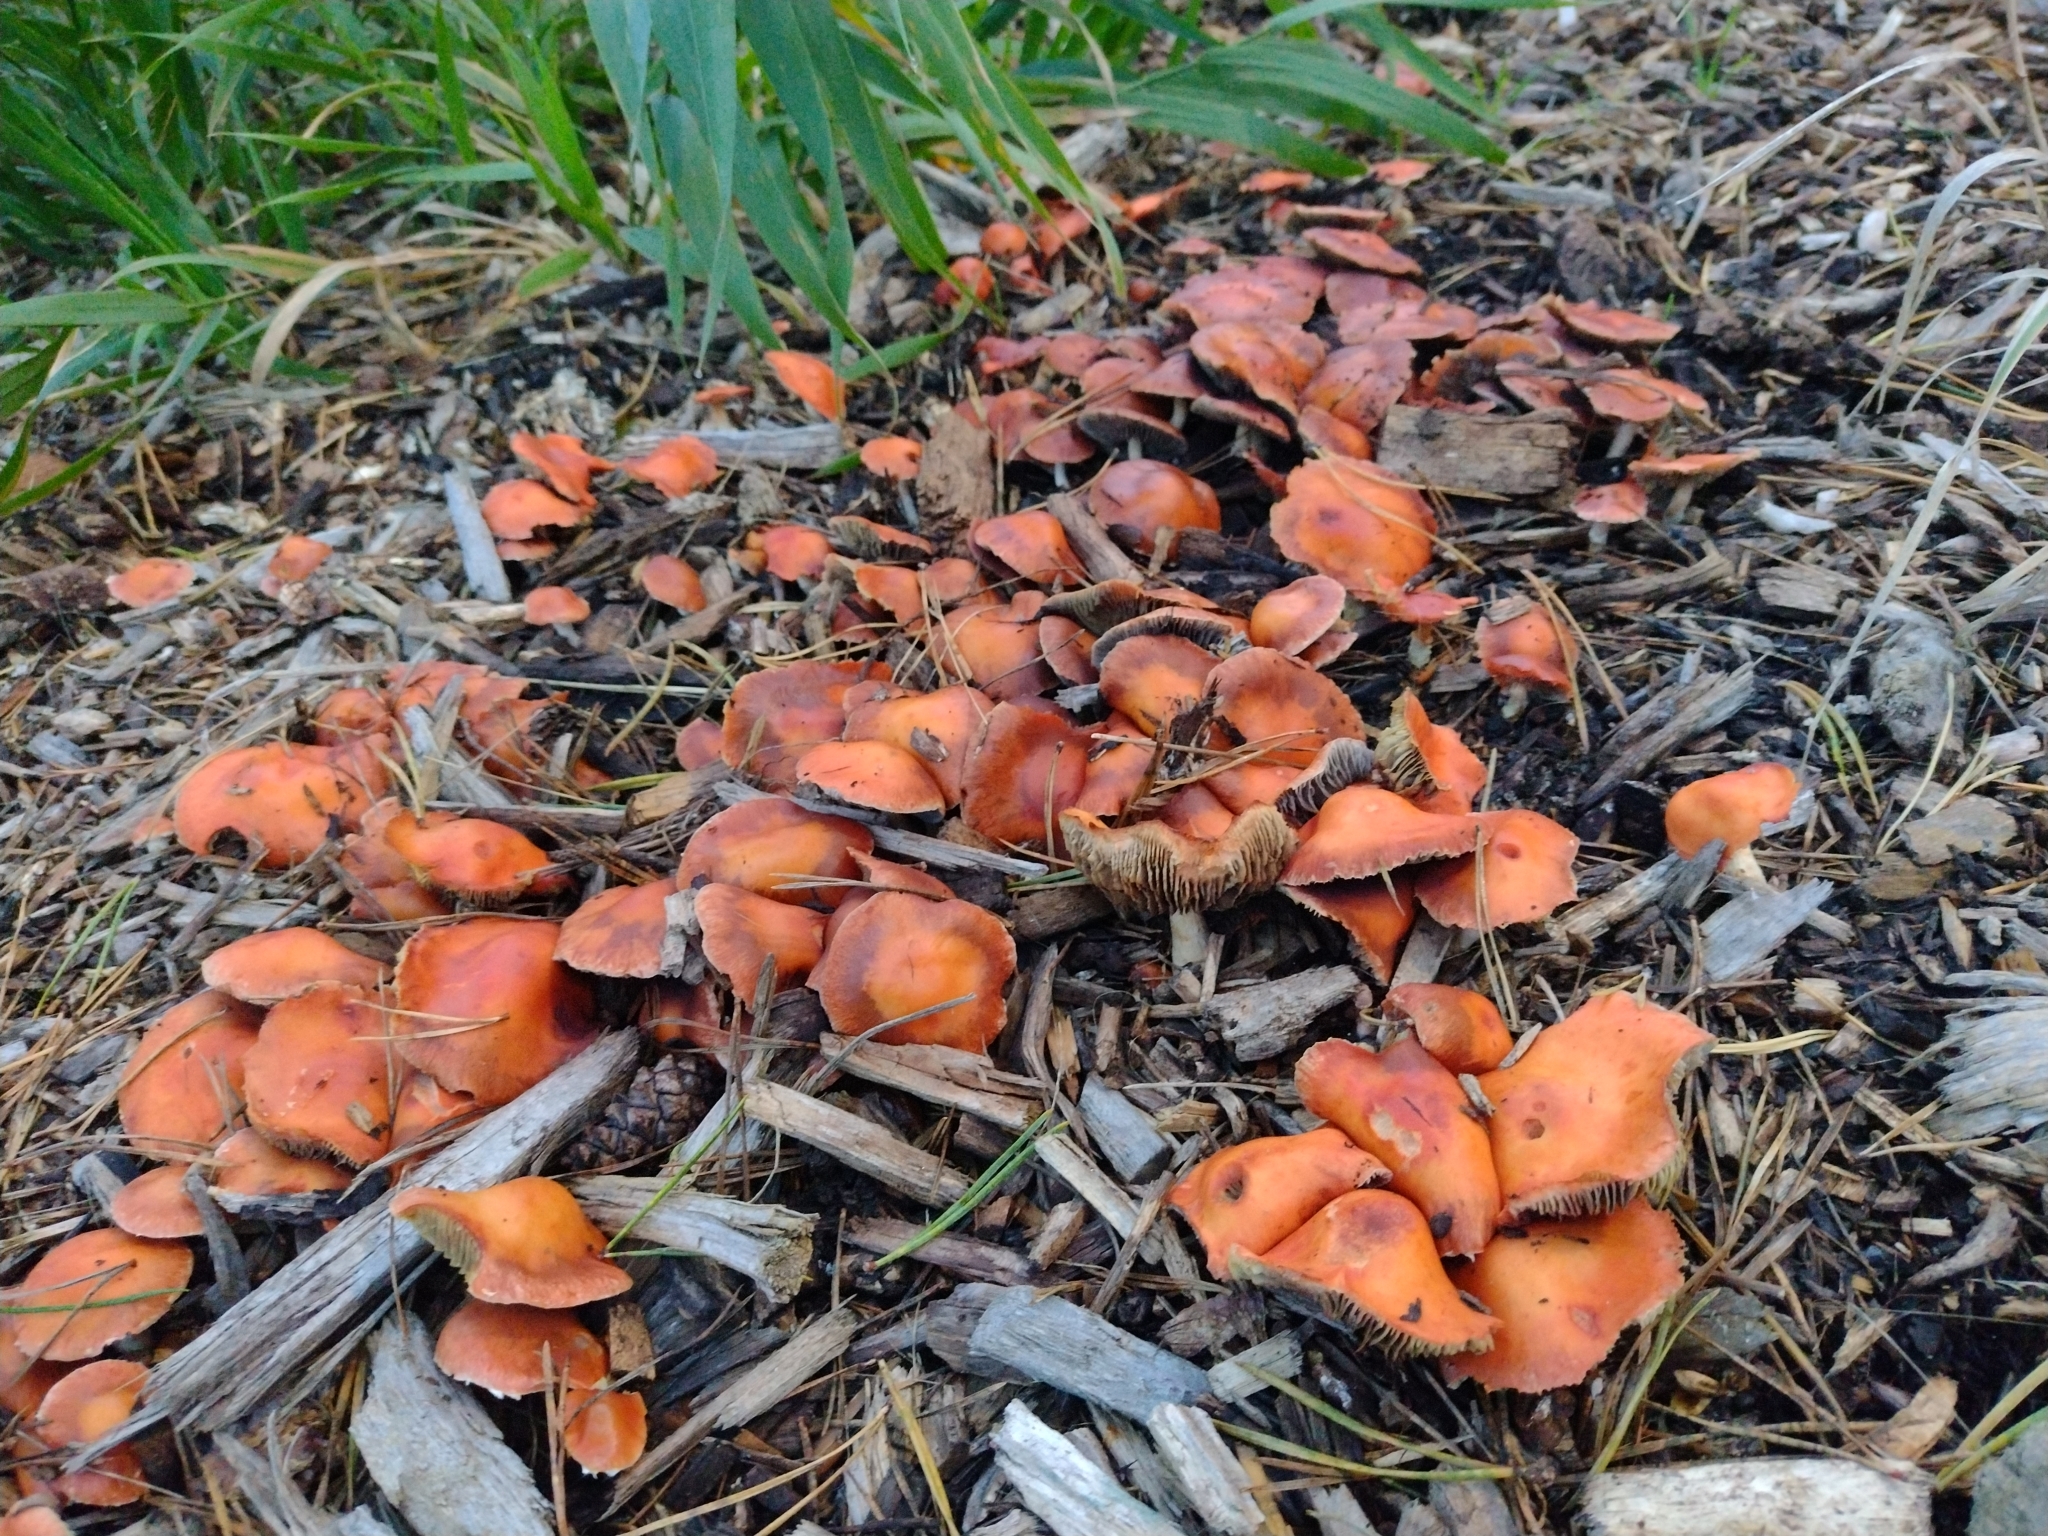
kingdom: Fungi
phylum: Basidiomycota
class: Agaricomycetes
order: Agaricales
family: Strophariaceae
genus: Leratiomyces
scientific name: Leratiomyces ceres
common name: Redlead roundhead
